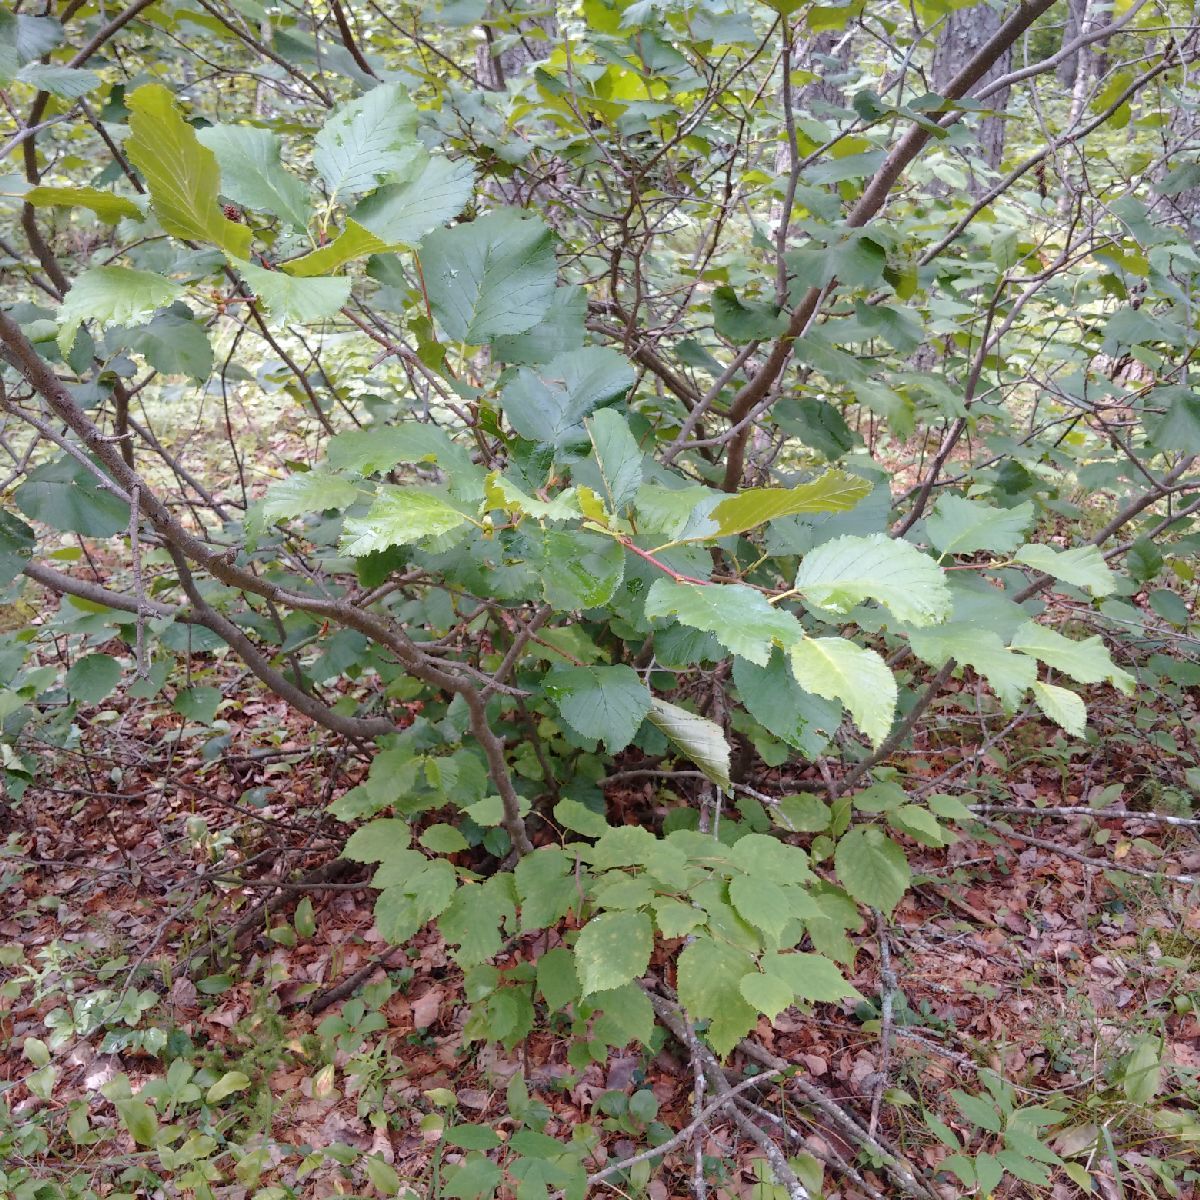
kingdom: Plantae
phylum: Tracheophyta
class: Magnoliopsida
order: Fagales
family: Betulaceae
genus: Alnus
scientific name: Alnus alnobetula
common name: Green alder
